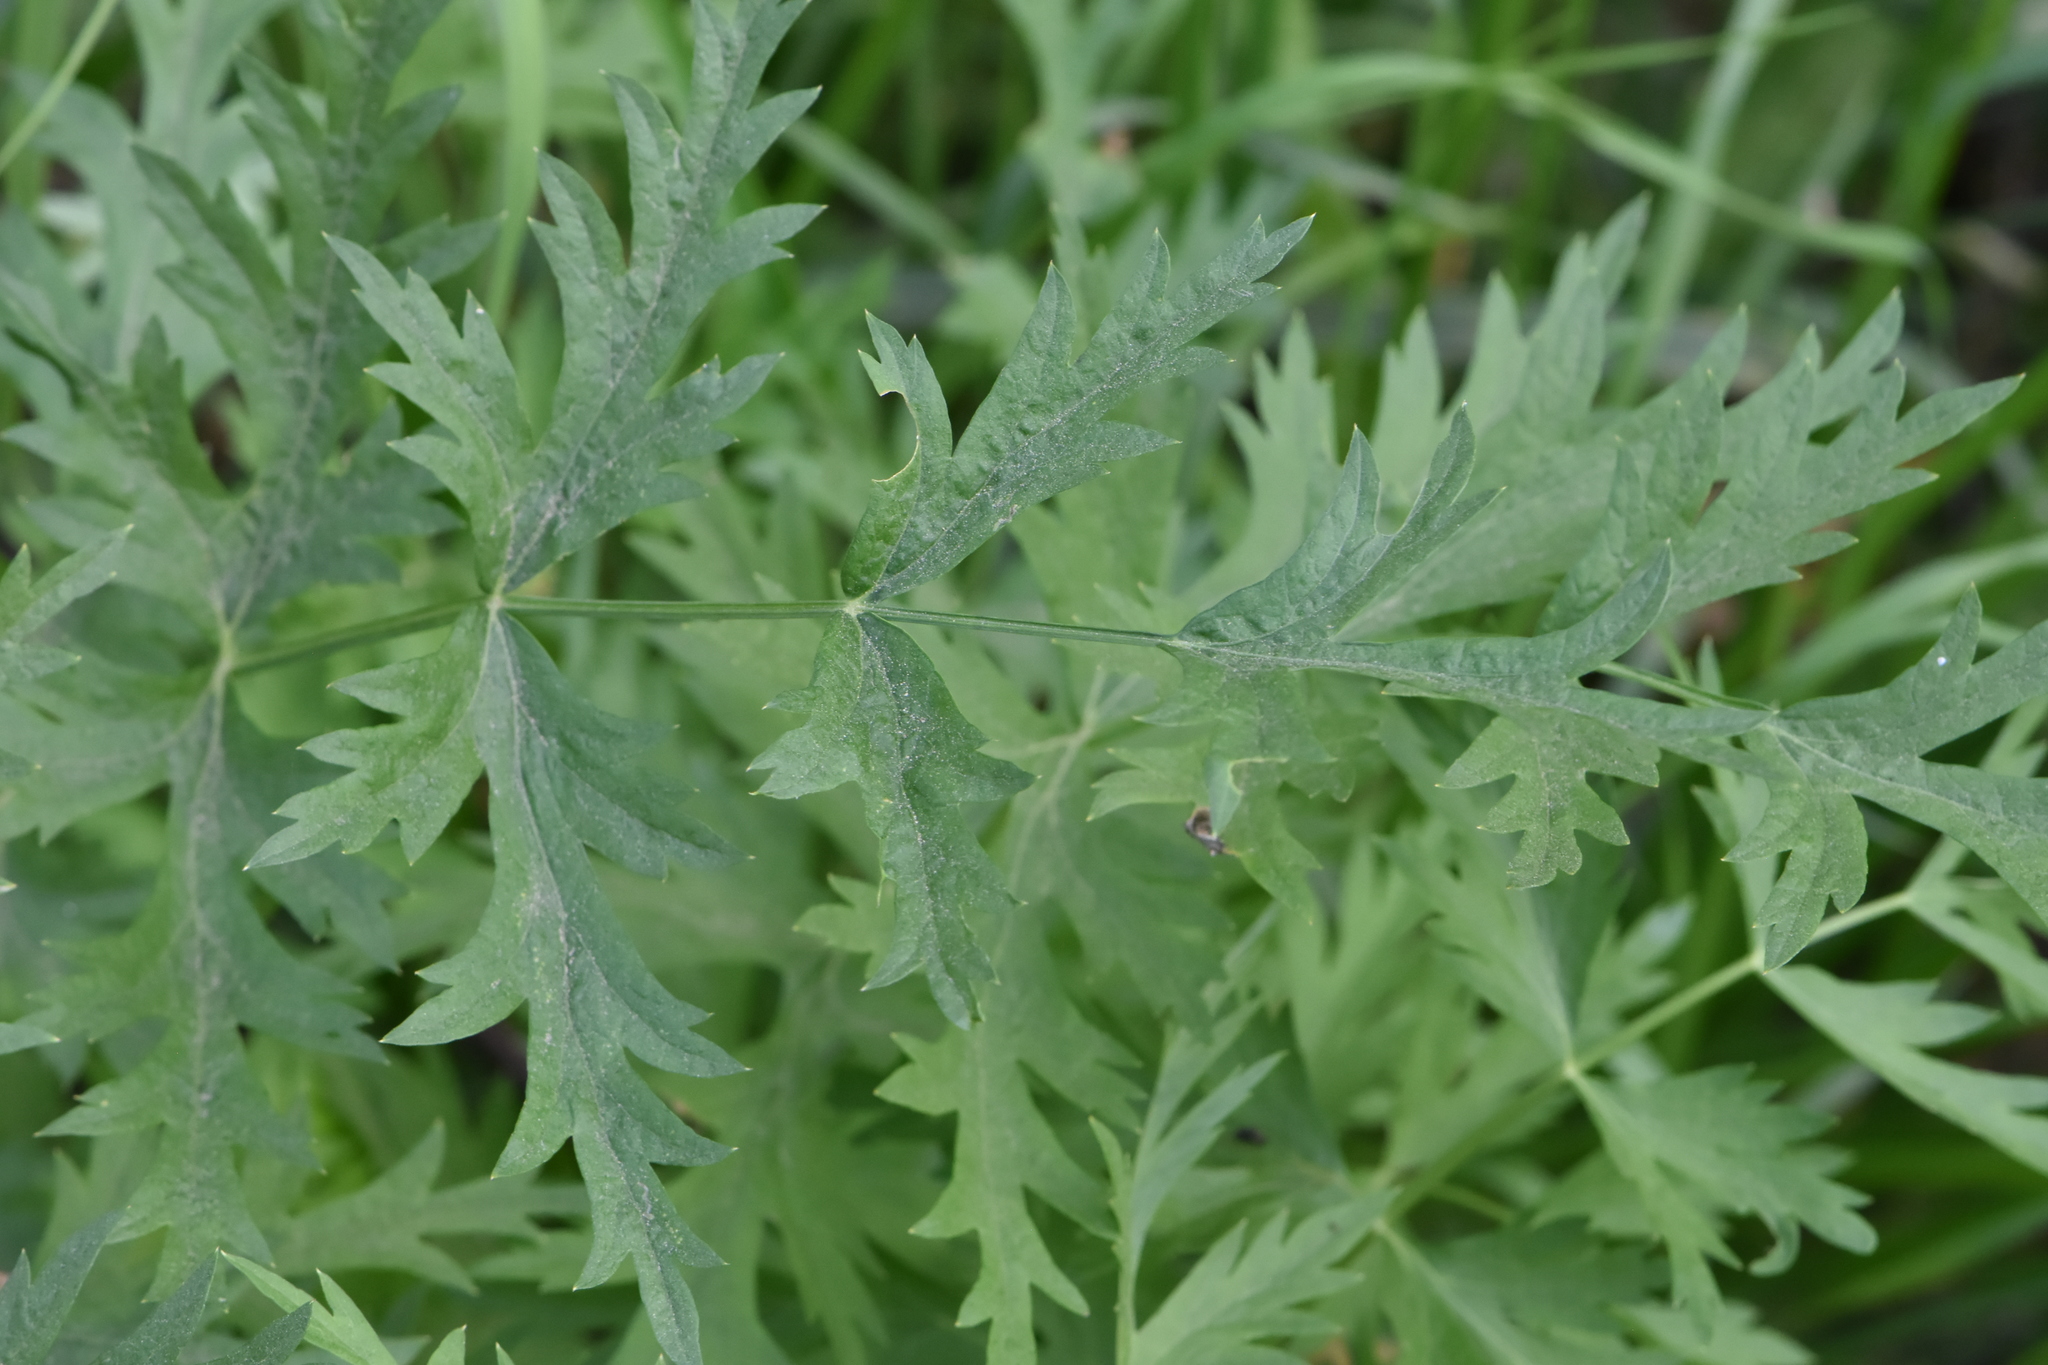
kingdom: Plantae
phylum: Tracheophyta
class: Magnoliopsida
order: Apiales
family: Apiaceae
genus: Seseli
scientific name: Seseli libanotis
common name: Mooncarrot
